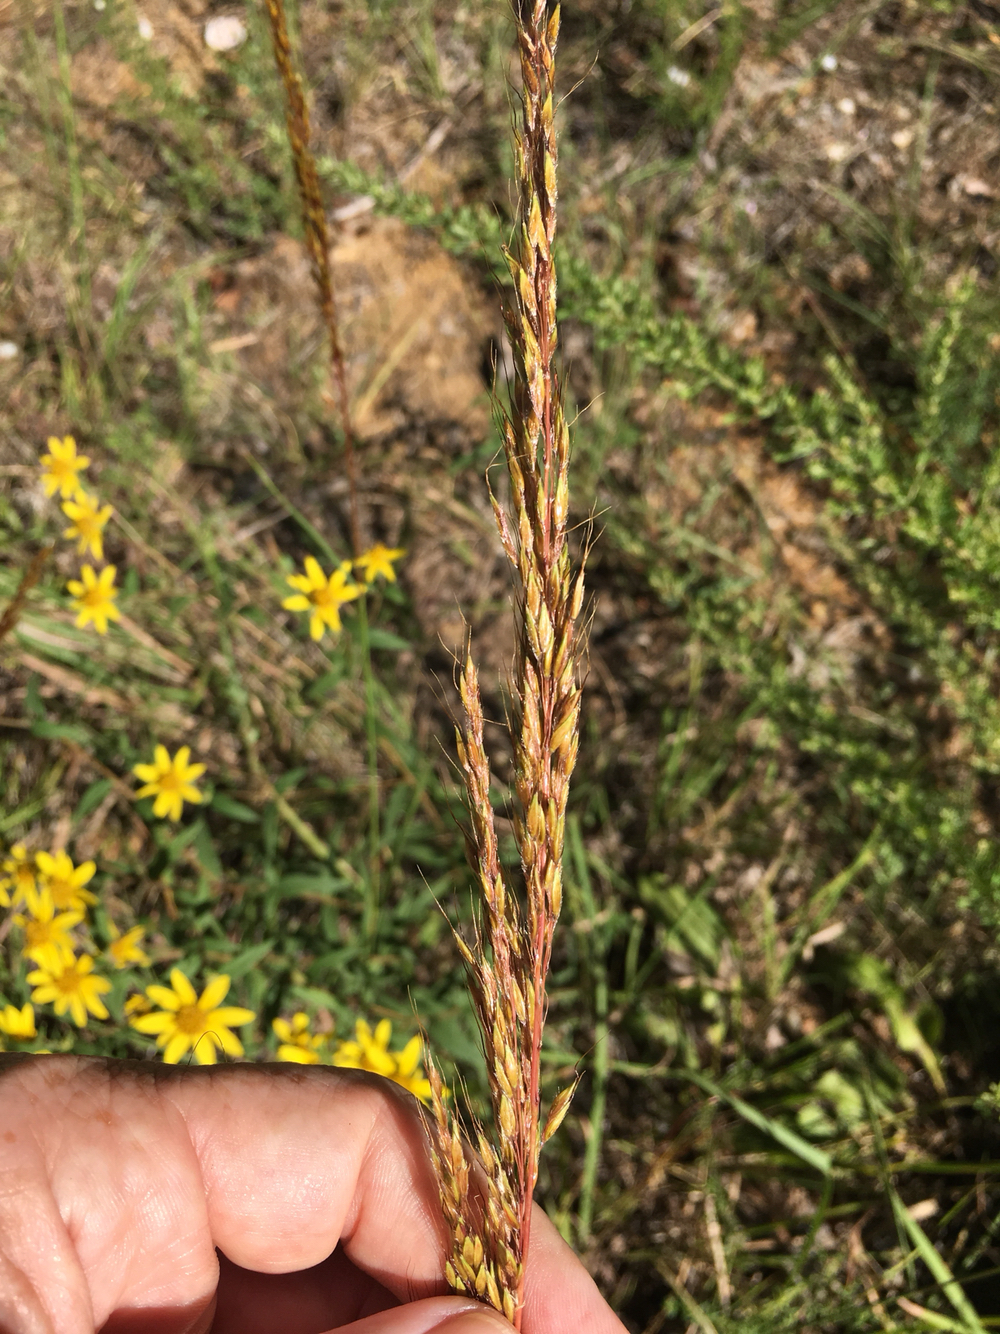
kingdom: Plantae
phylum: Tracheophyta
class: Liliopsida
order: Poales
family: Poaceae
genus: Sorghastrum
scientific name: Sorghastrum nutans
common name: Indian grass
